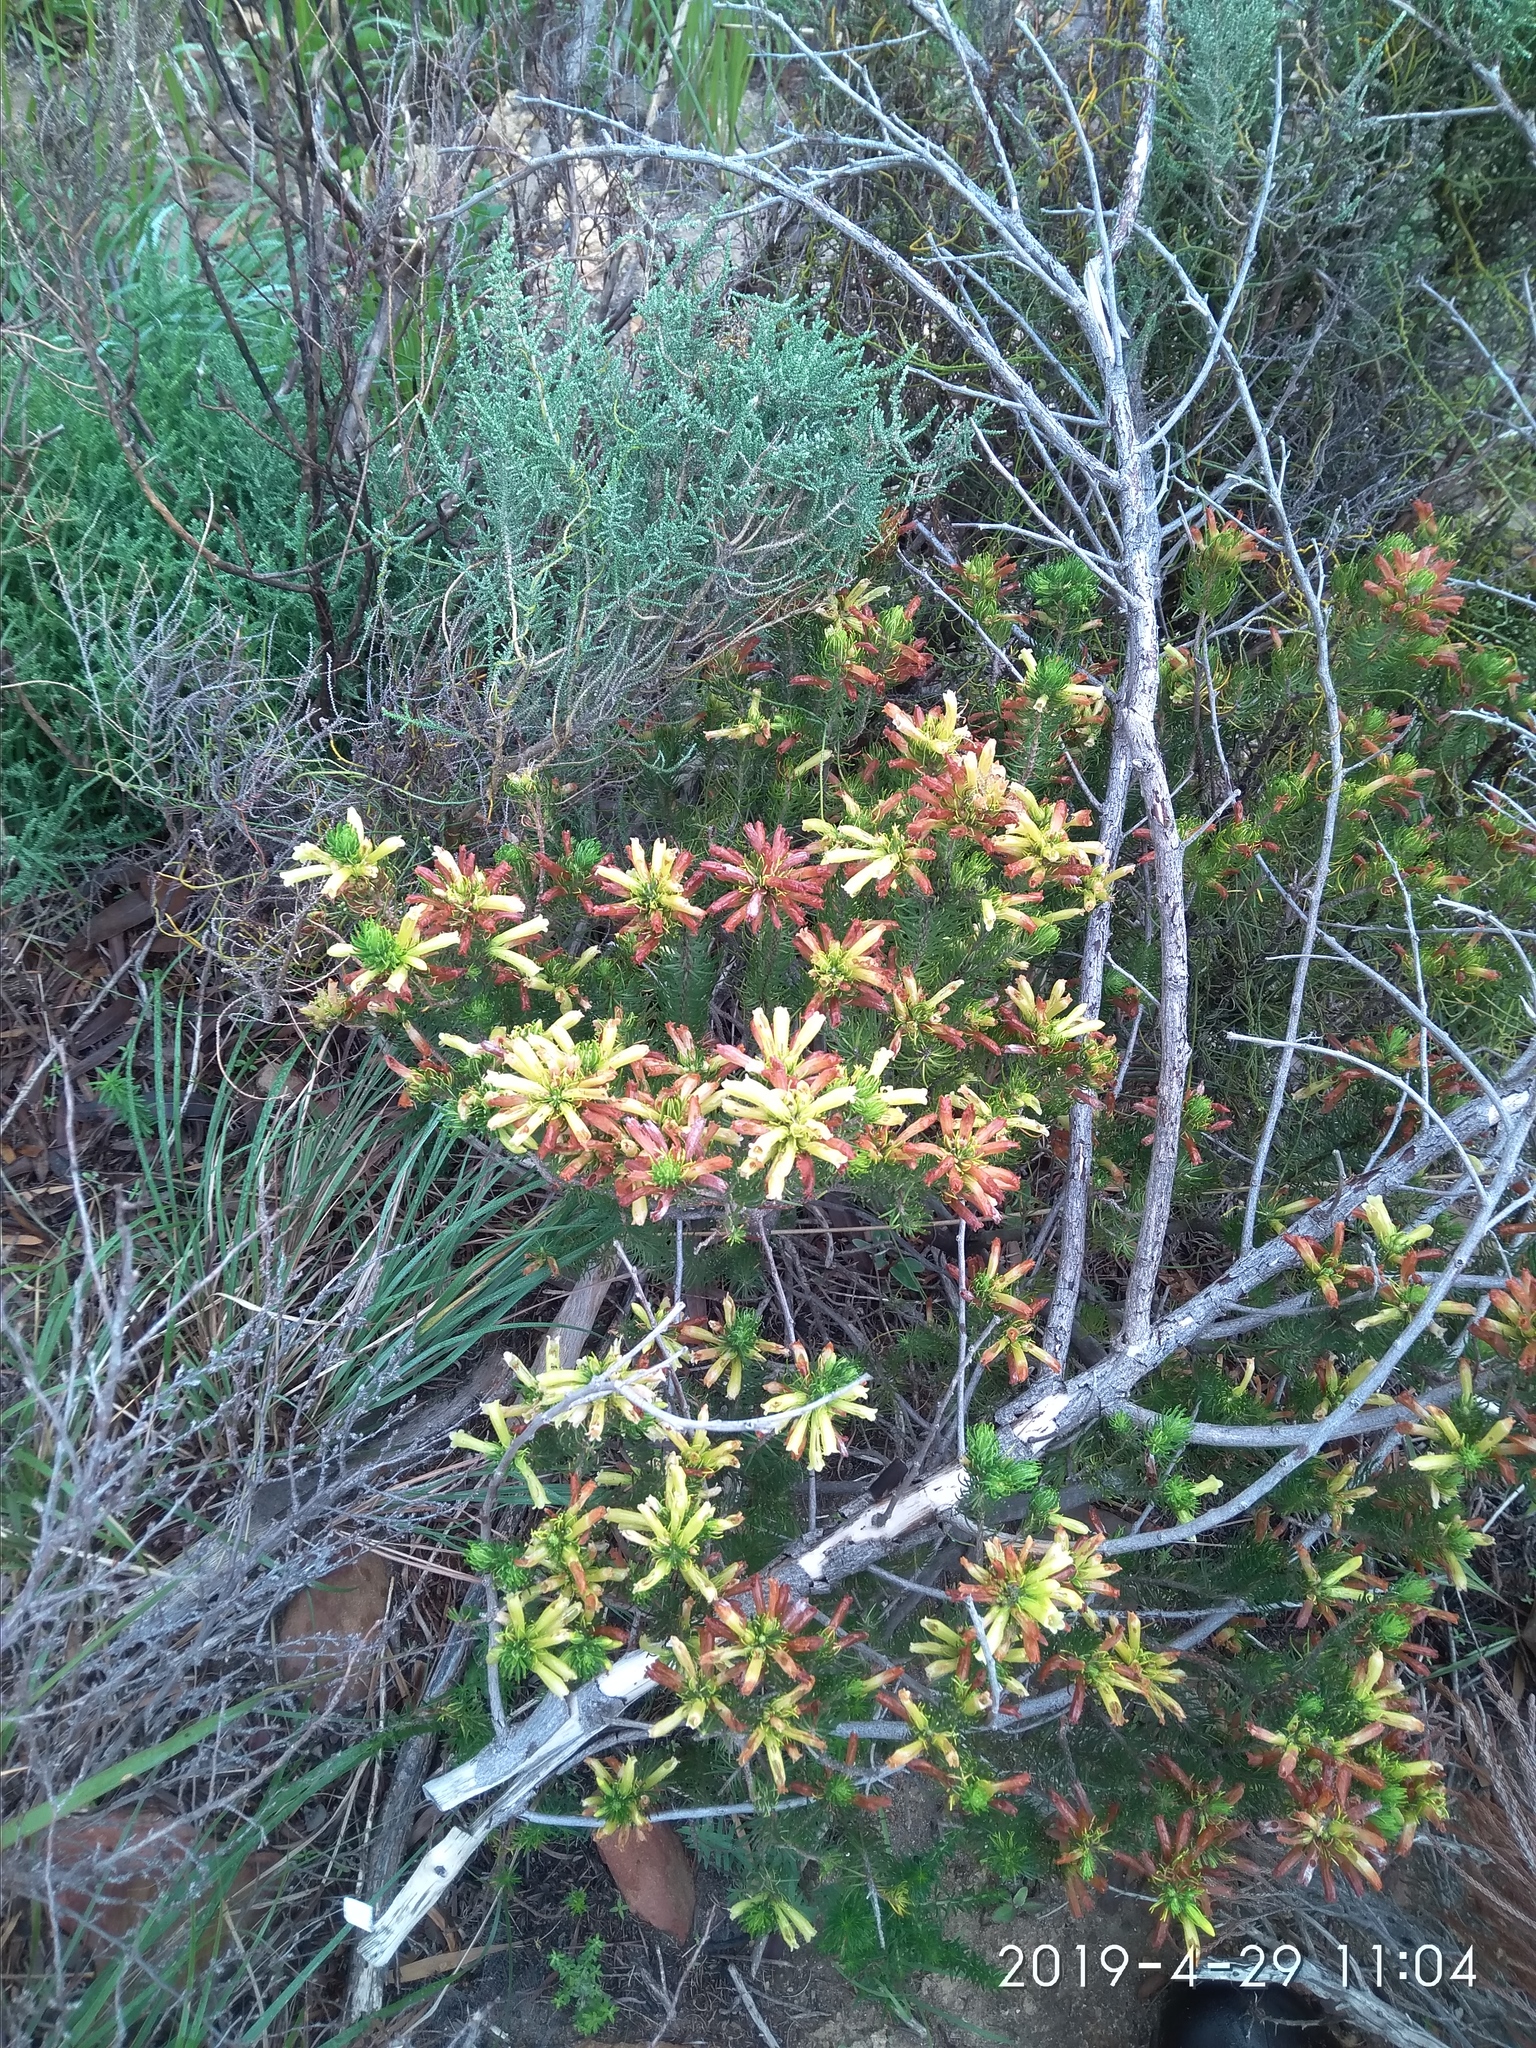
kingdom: Plantae
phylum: Tracheophyta
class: Magnoliopsida
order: Ericales
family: Ericaceae
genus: Erica
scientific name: Erica viscaria
